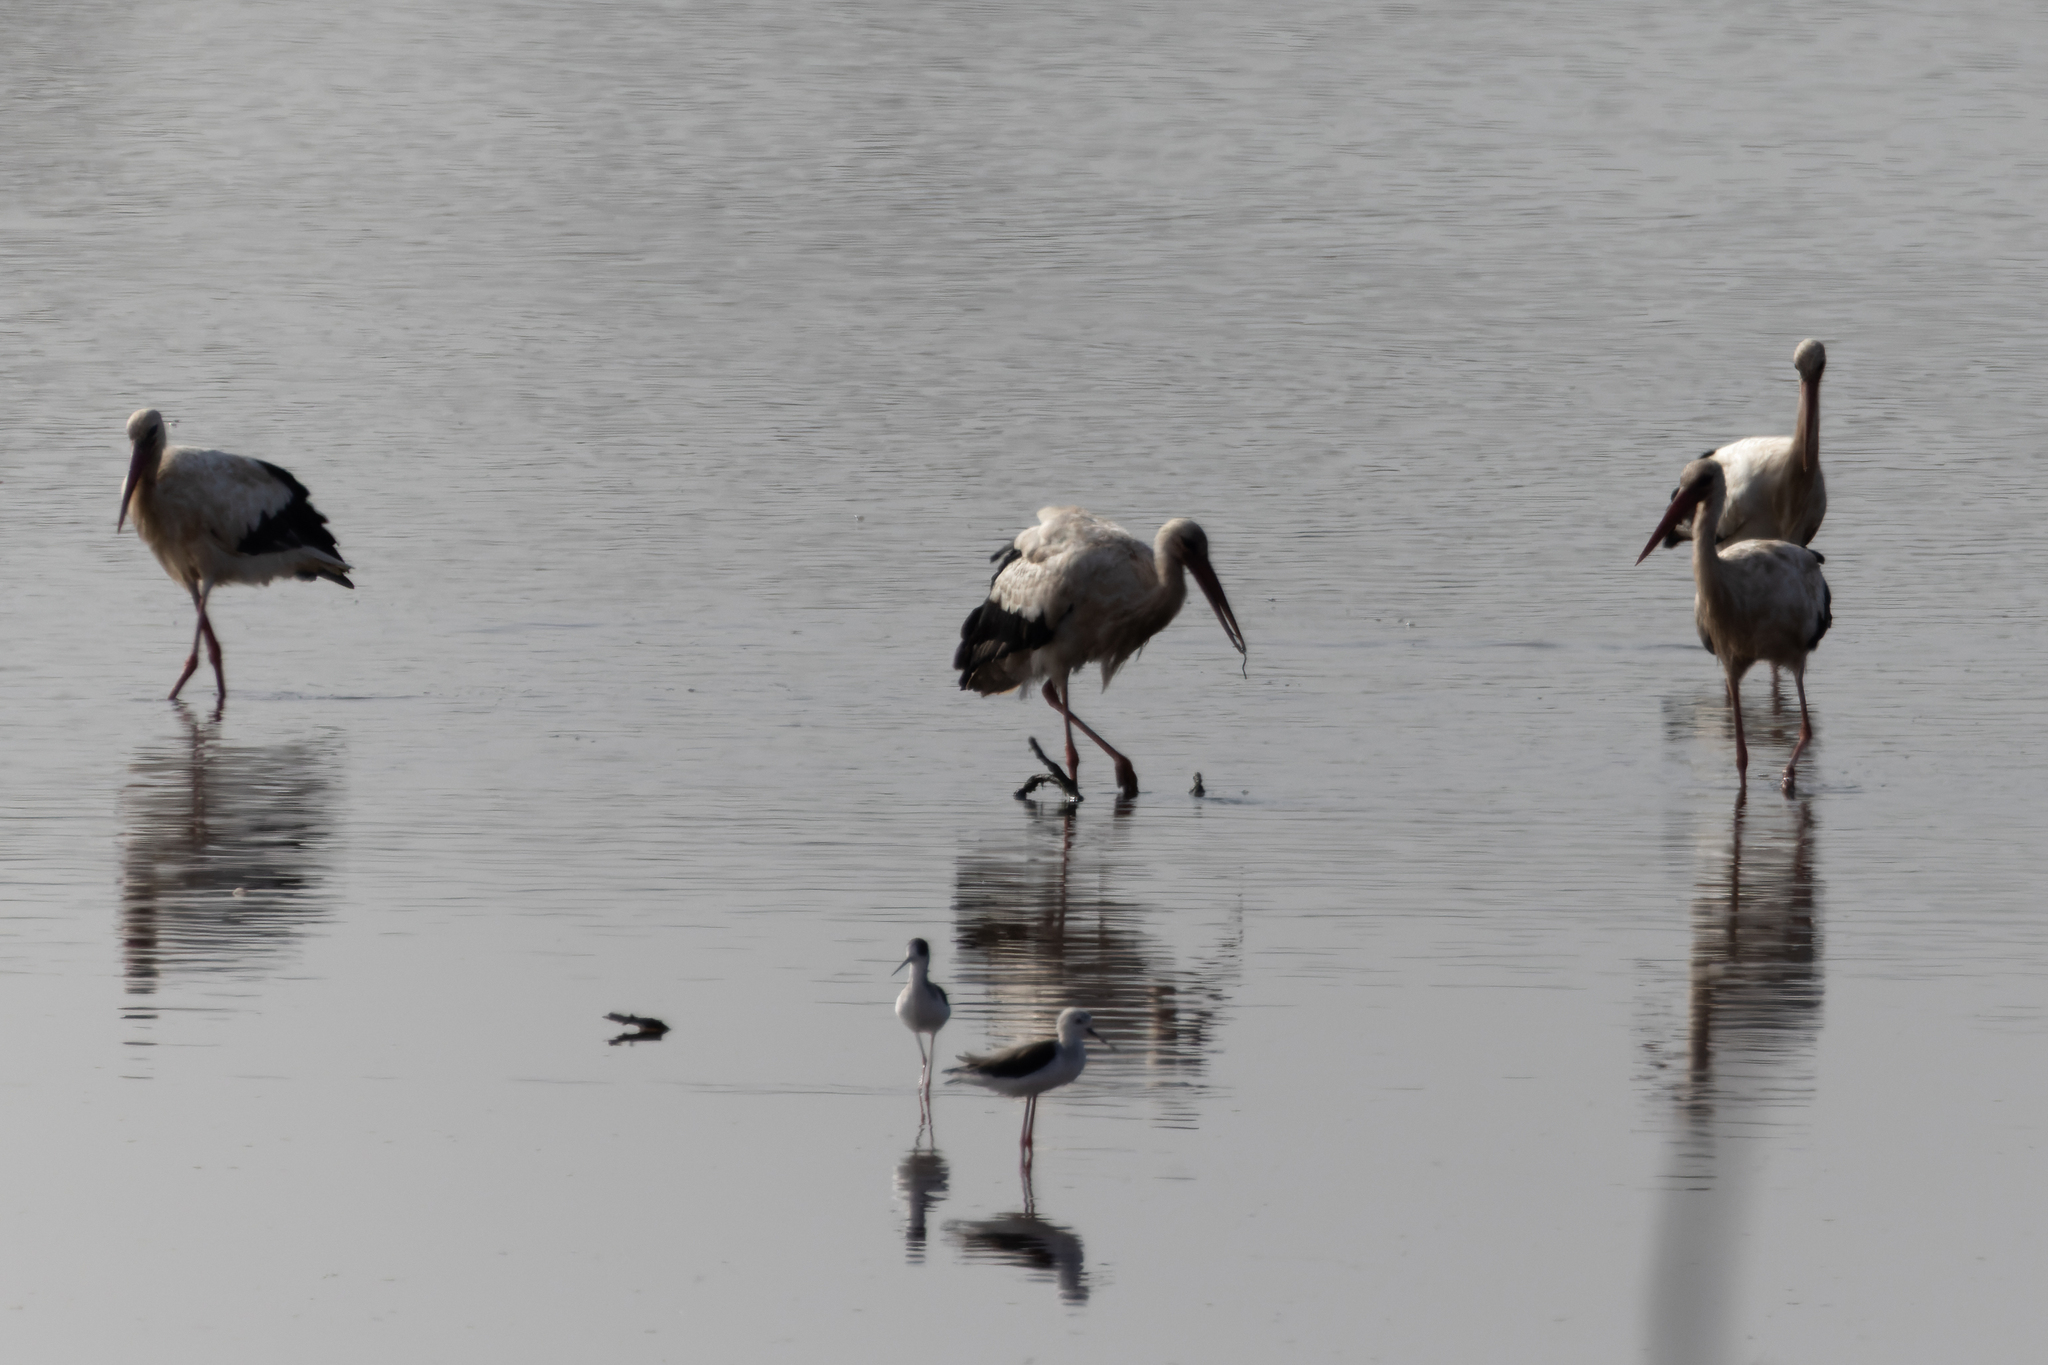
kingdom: Animalia
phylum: Chordata
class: Aves
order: Ciconiiformes
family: Ciconiidae
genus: Ciconia
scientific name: Ciconia ciconia
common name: White stork
